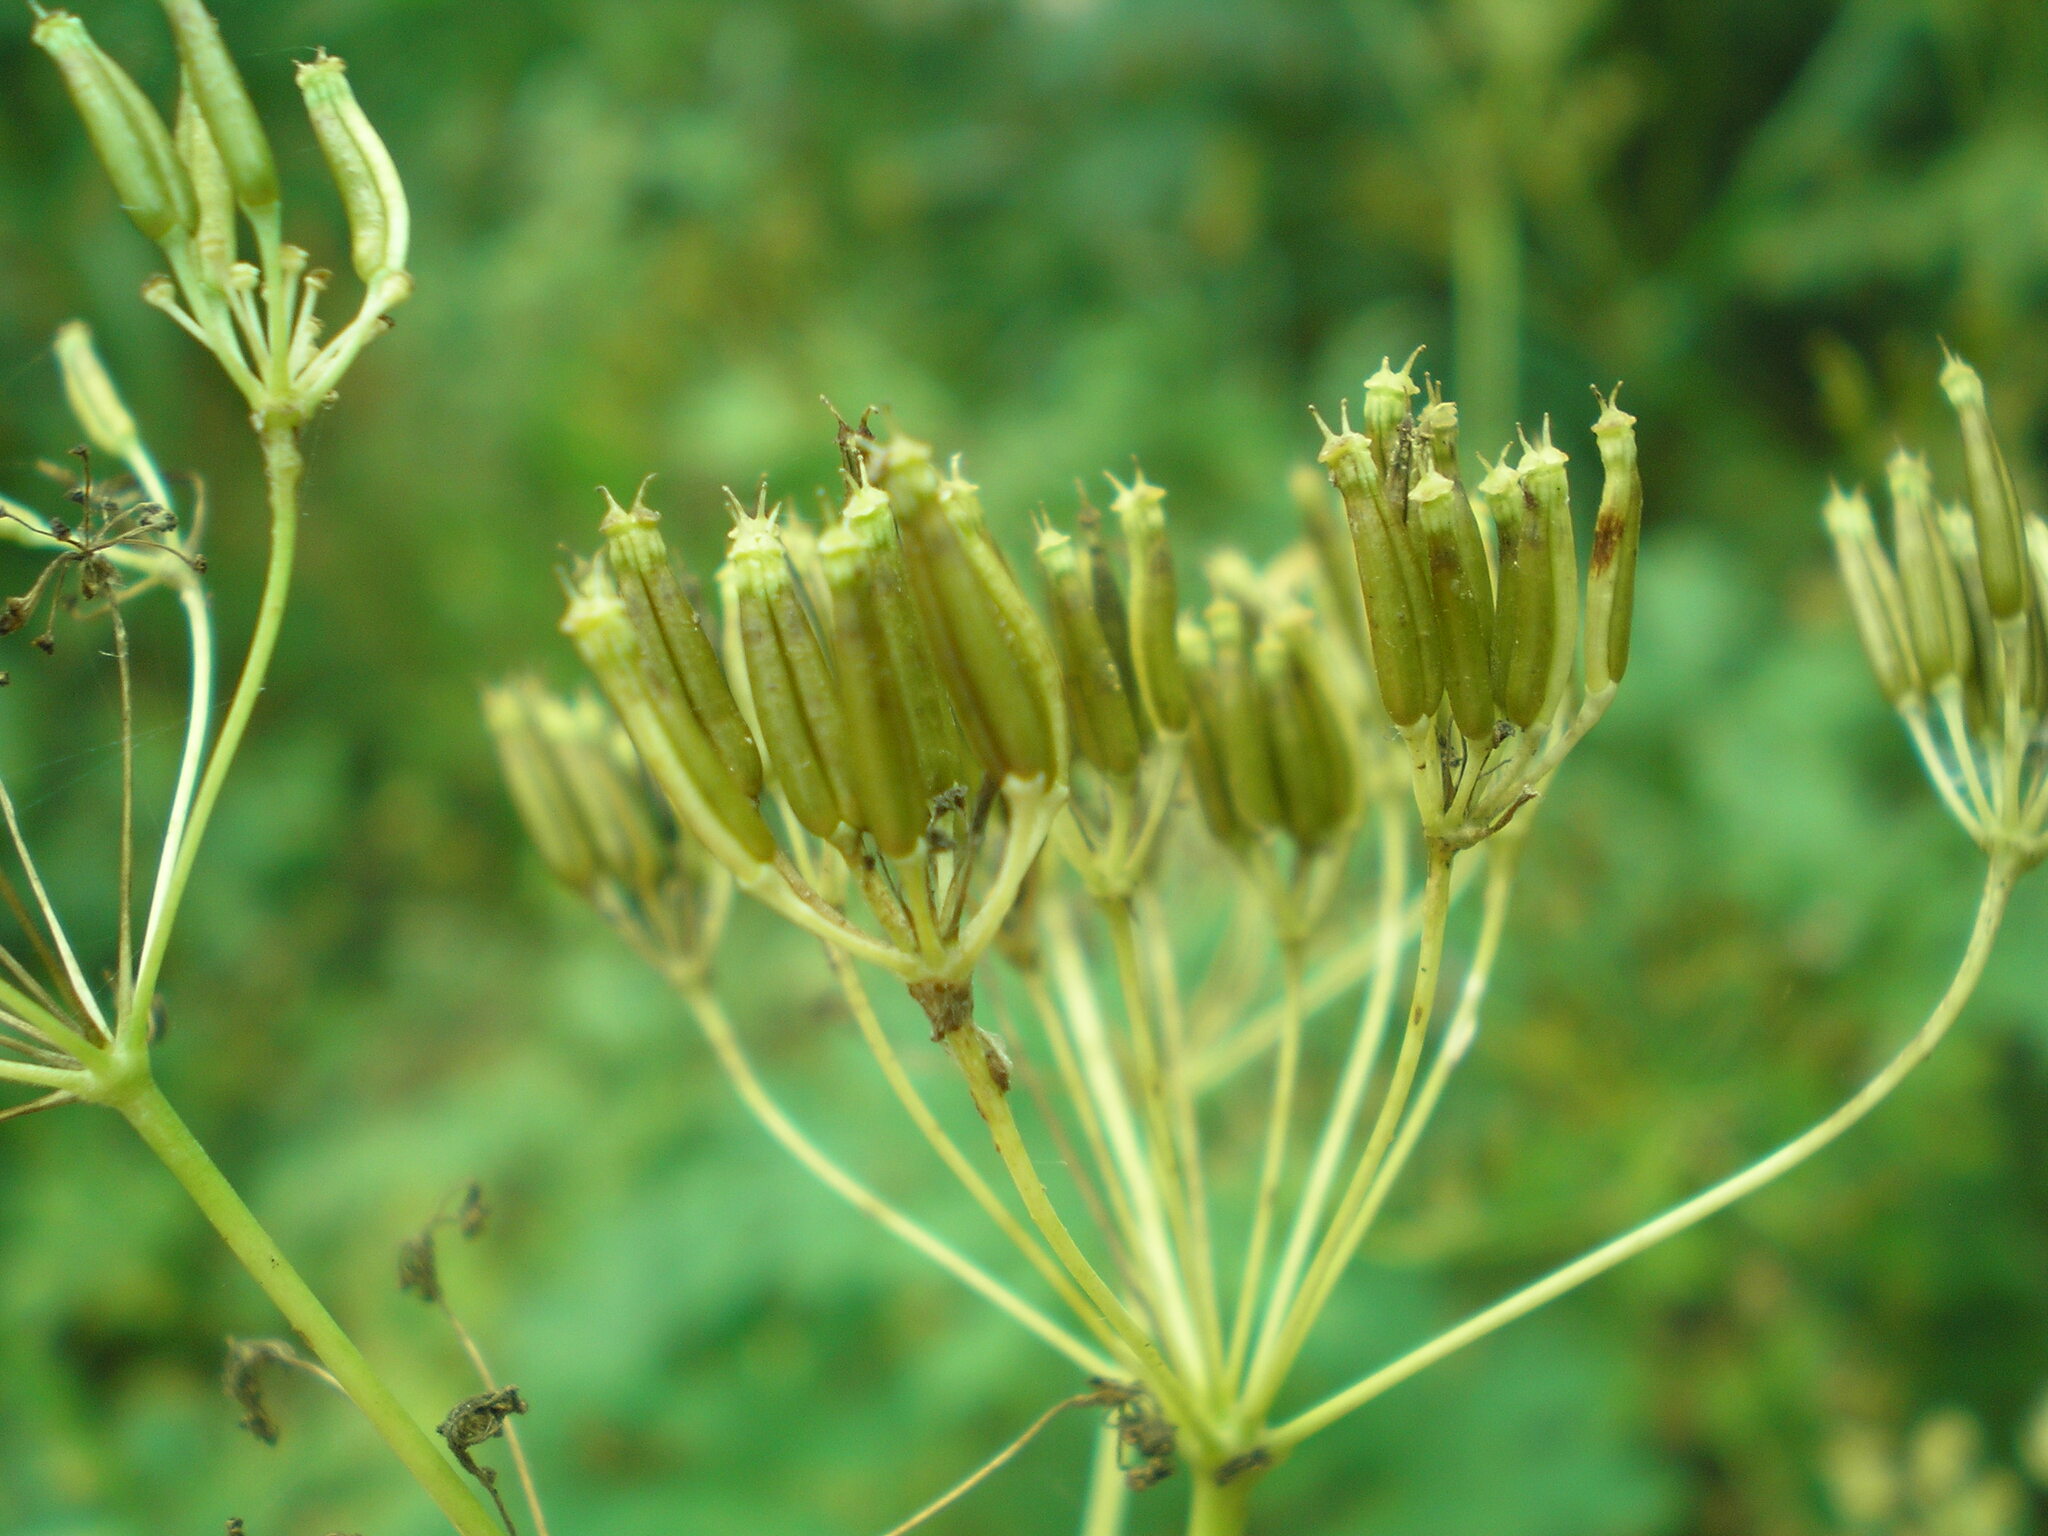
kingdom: Plantae
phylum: Tracheophyta
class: Magnoliopsida
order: Apiales
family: Apiaceae
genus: Chaerophyllum
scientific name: Chaerophyllum prescottii
